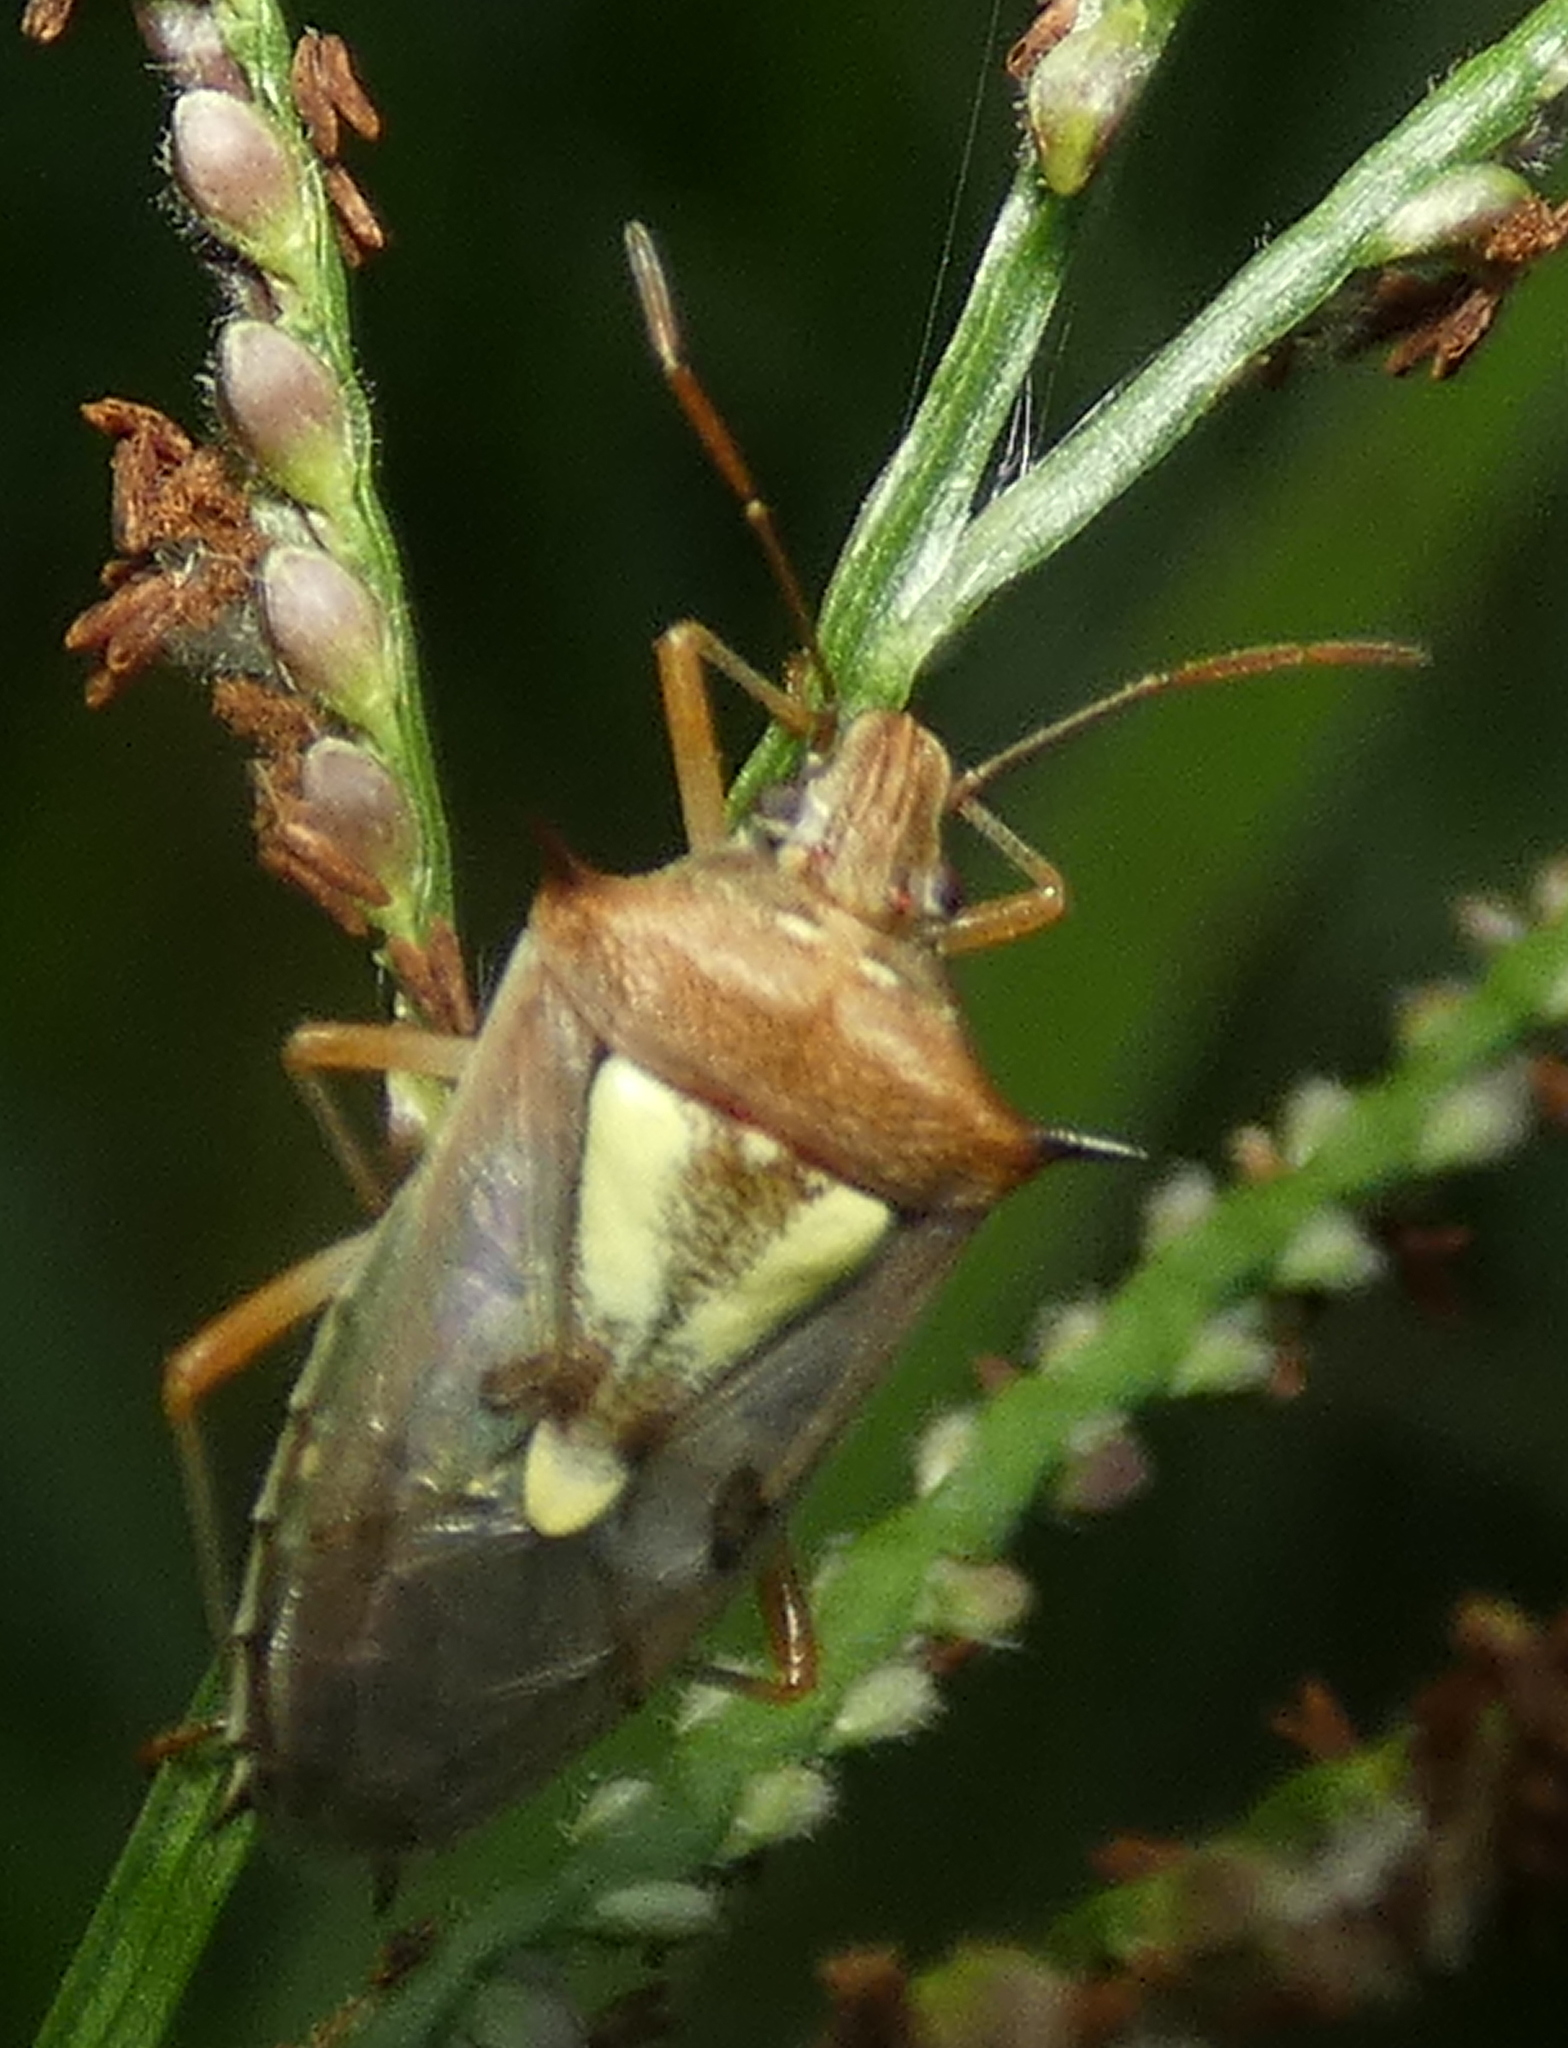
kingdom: Animalia
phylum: Arthropoda
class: Insecta
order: Hemiptera
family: Pentatomidae
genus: Oebalus
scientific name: Oebalus ypsilongriseus
